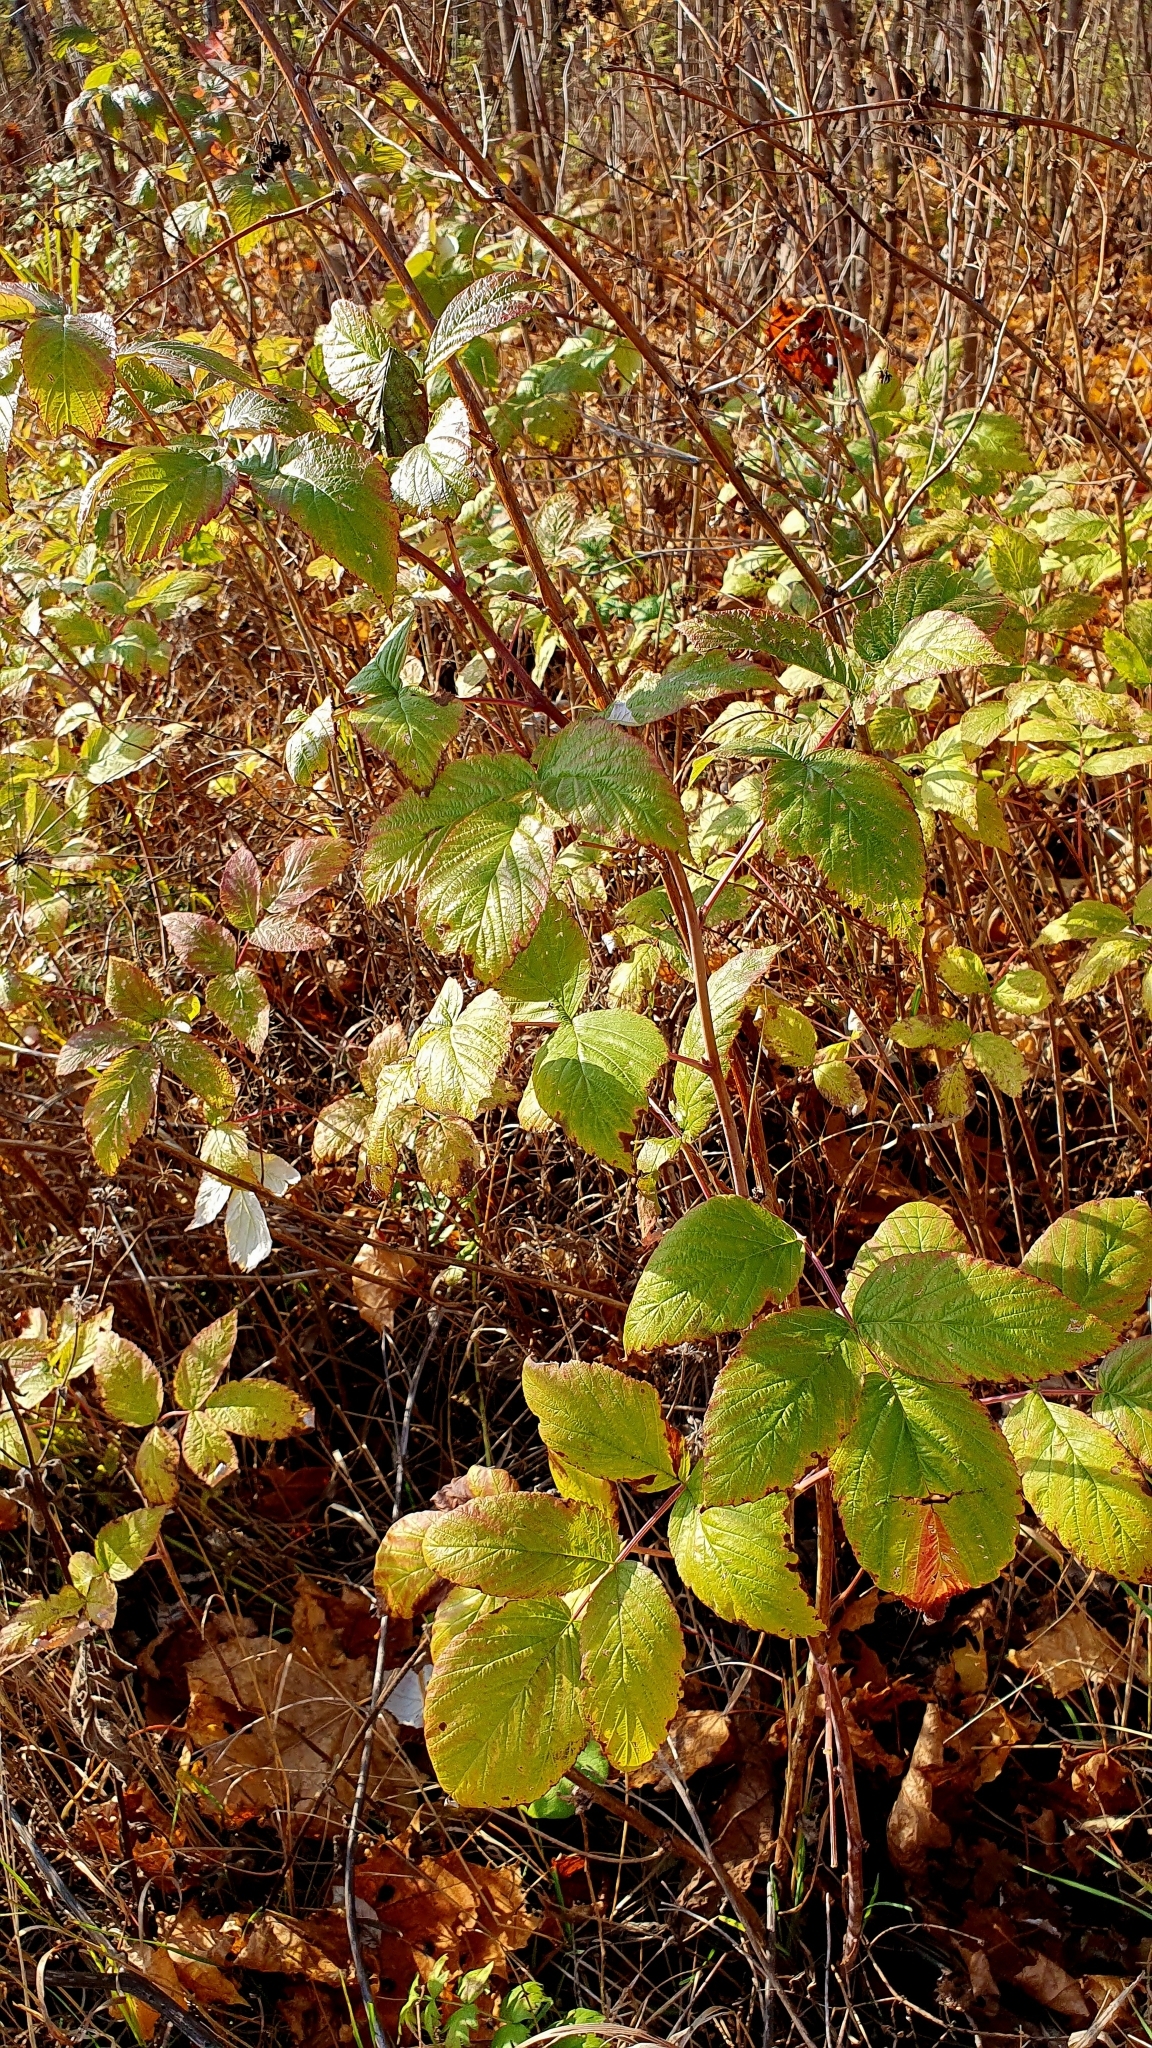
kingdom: Plantae
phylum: Tracheophyta
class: Magnoliopsida
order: Rosales
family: Rosaceae
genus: Rubus
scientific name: Rubus idaeus
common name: Raspberry
